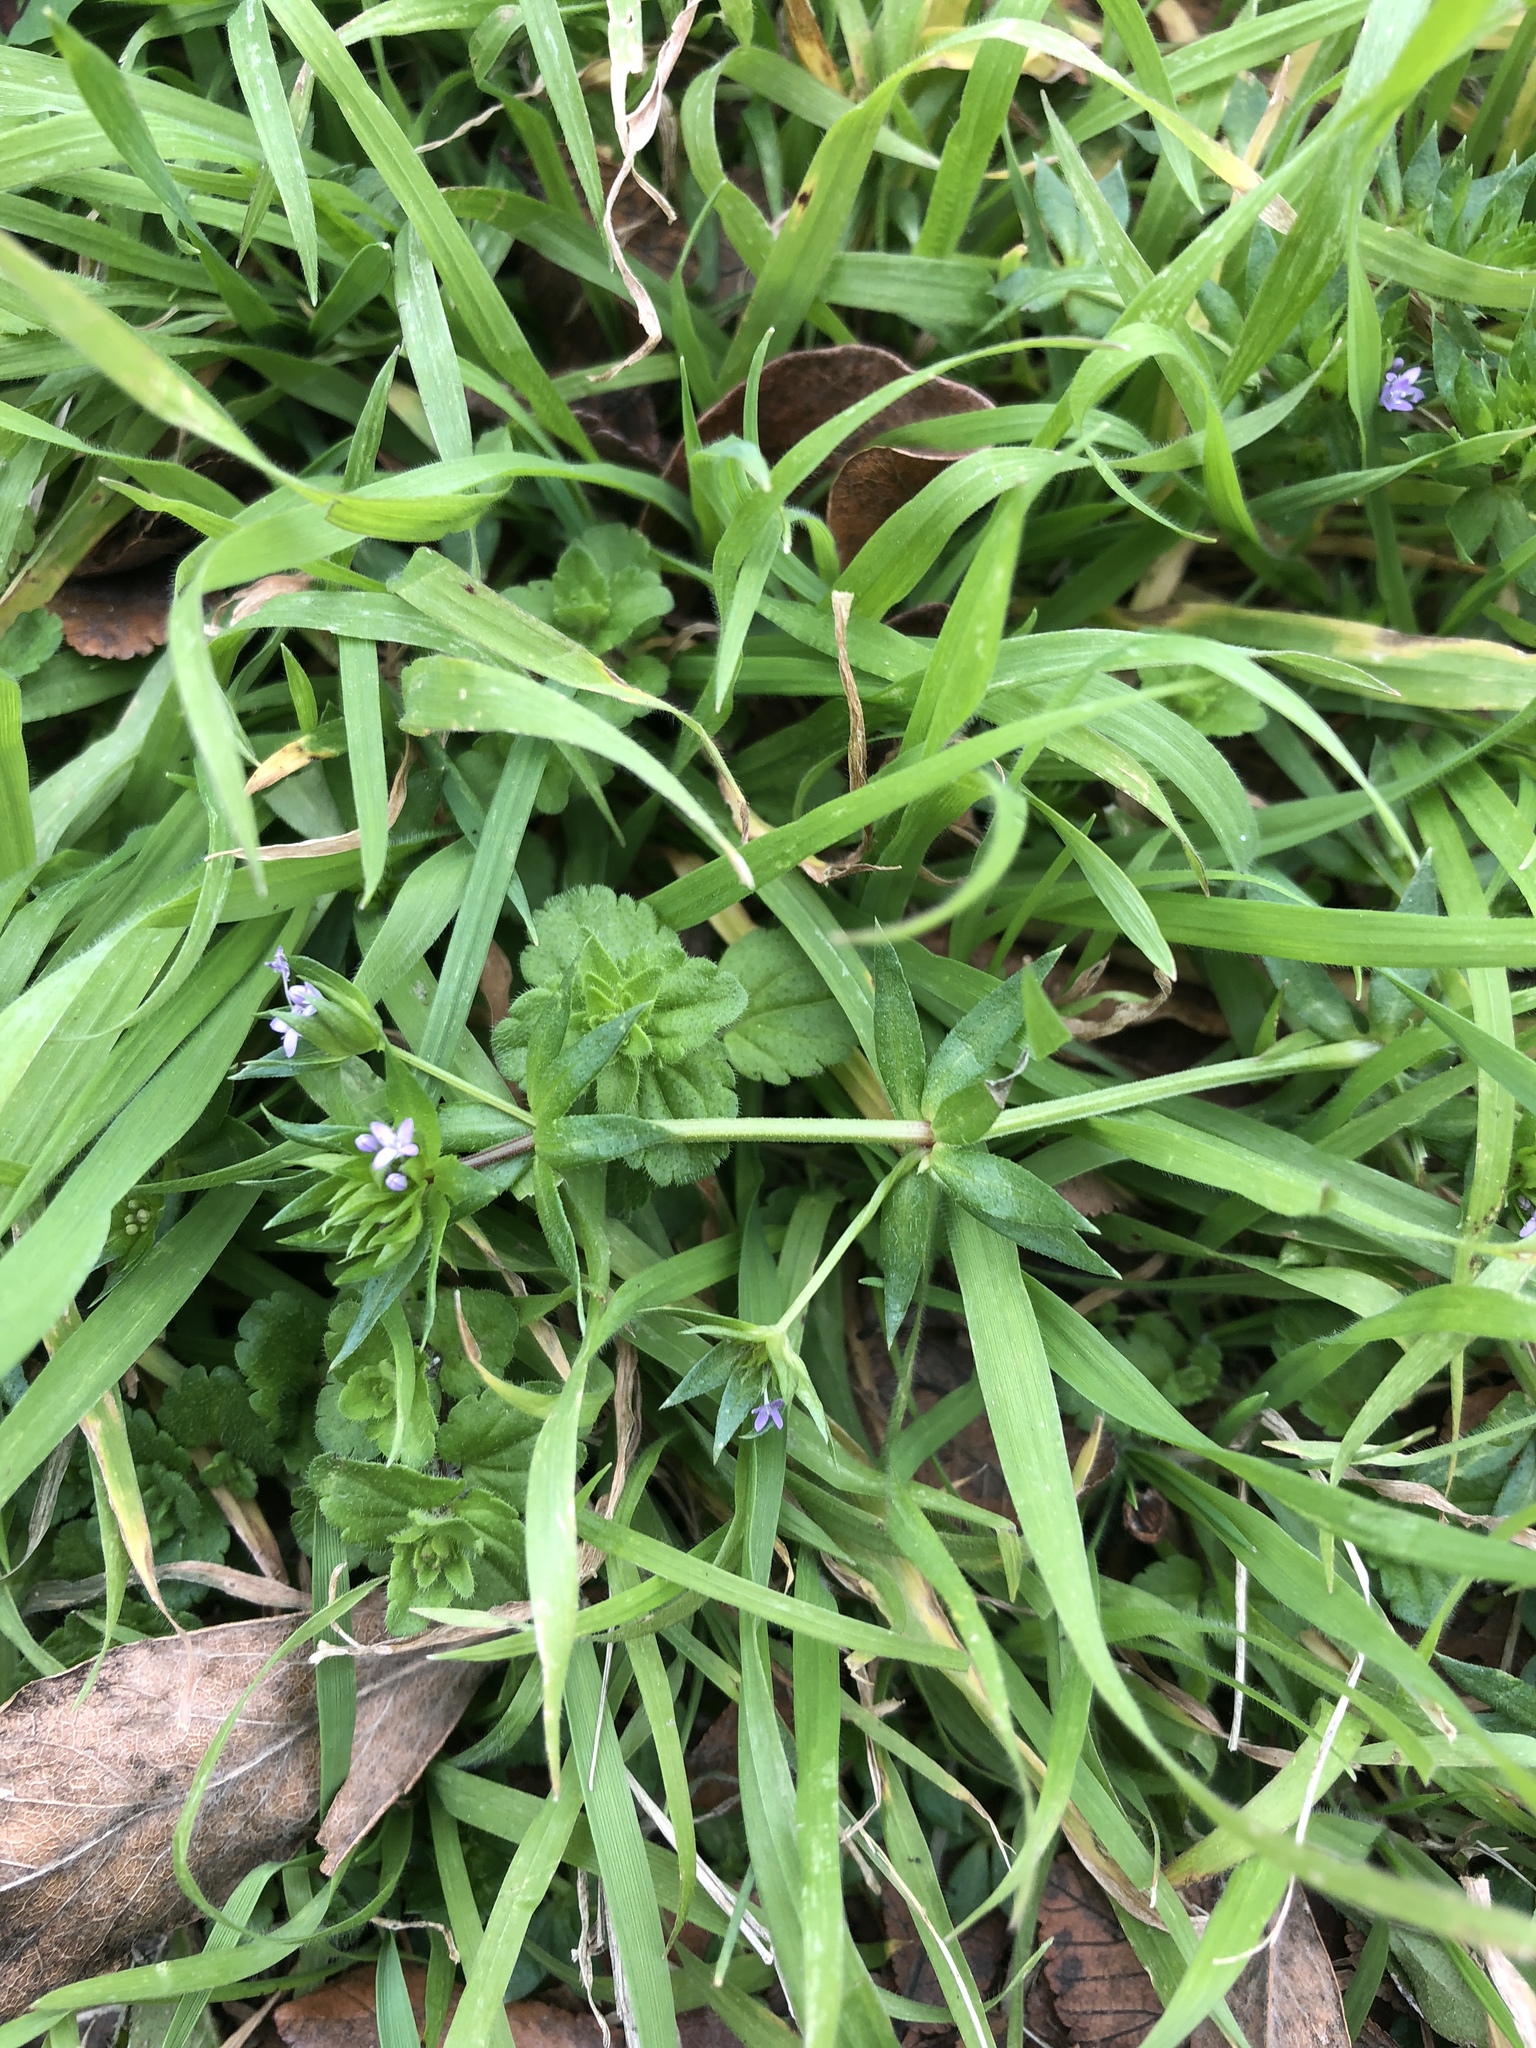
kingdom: Plantae
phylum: Tracheophyta
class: Magnoliopsida
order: Gentianales
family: Rubiaceae
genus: Sherardia
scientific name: Sherardia arvensis
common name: Field madder
